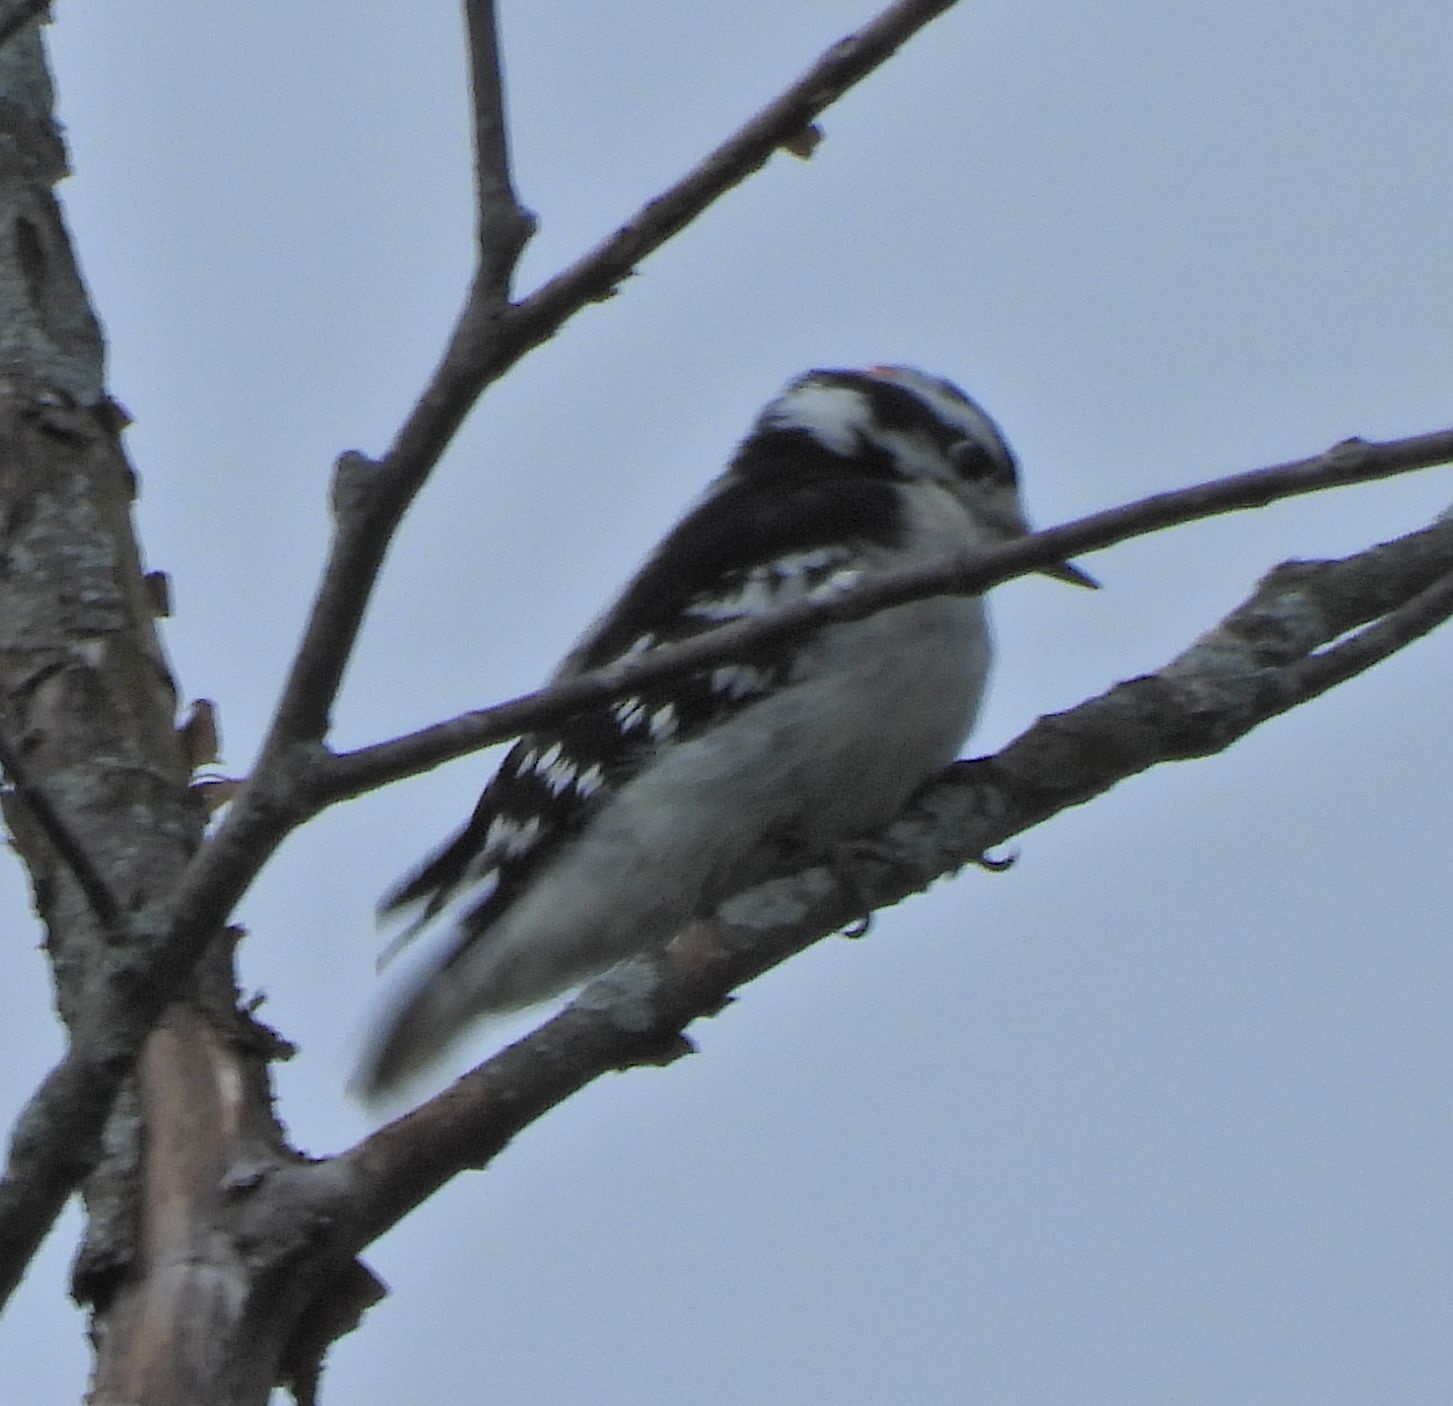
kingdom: Animalia
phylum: Chordata
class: Aves
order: Piciformes
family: Picidae
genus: Dryobates
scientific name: Dryobates pubescens
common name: Downy woodpecker
